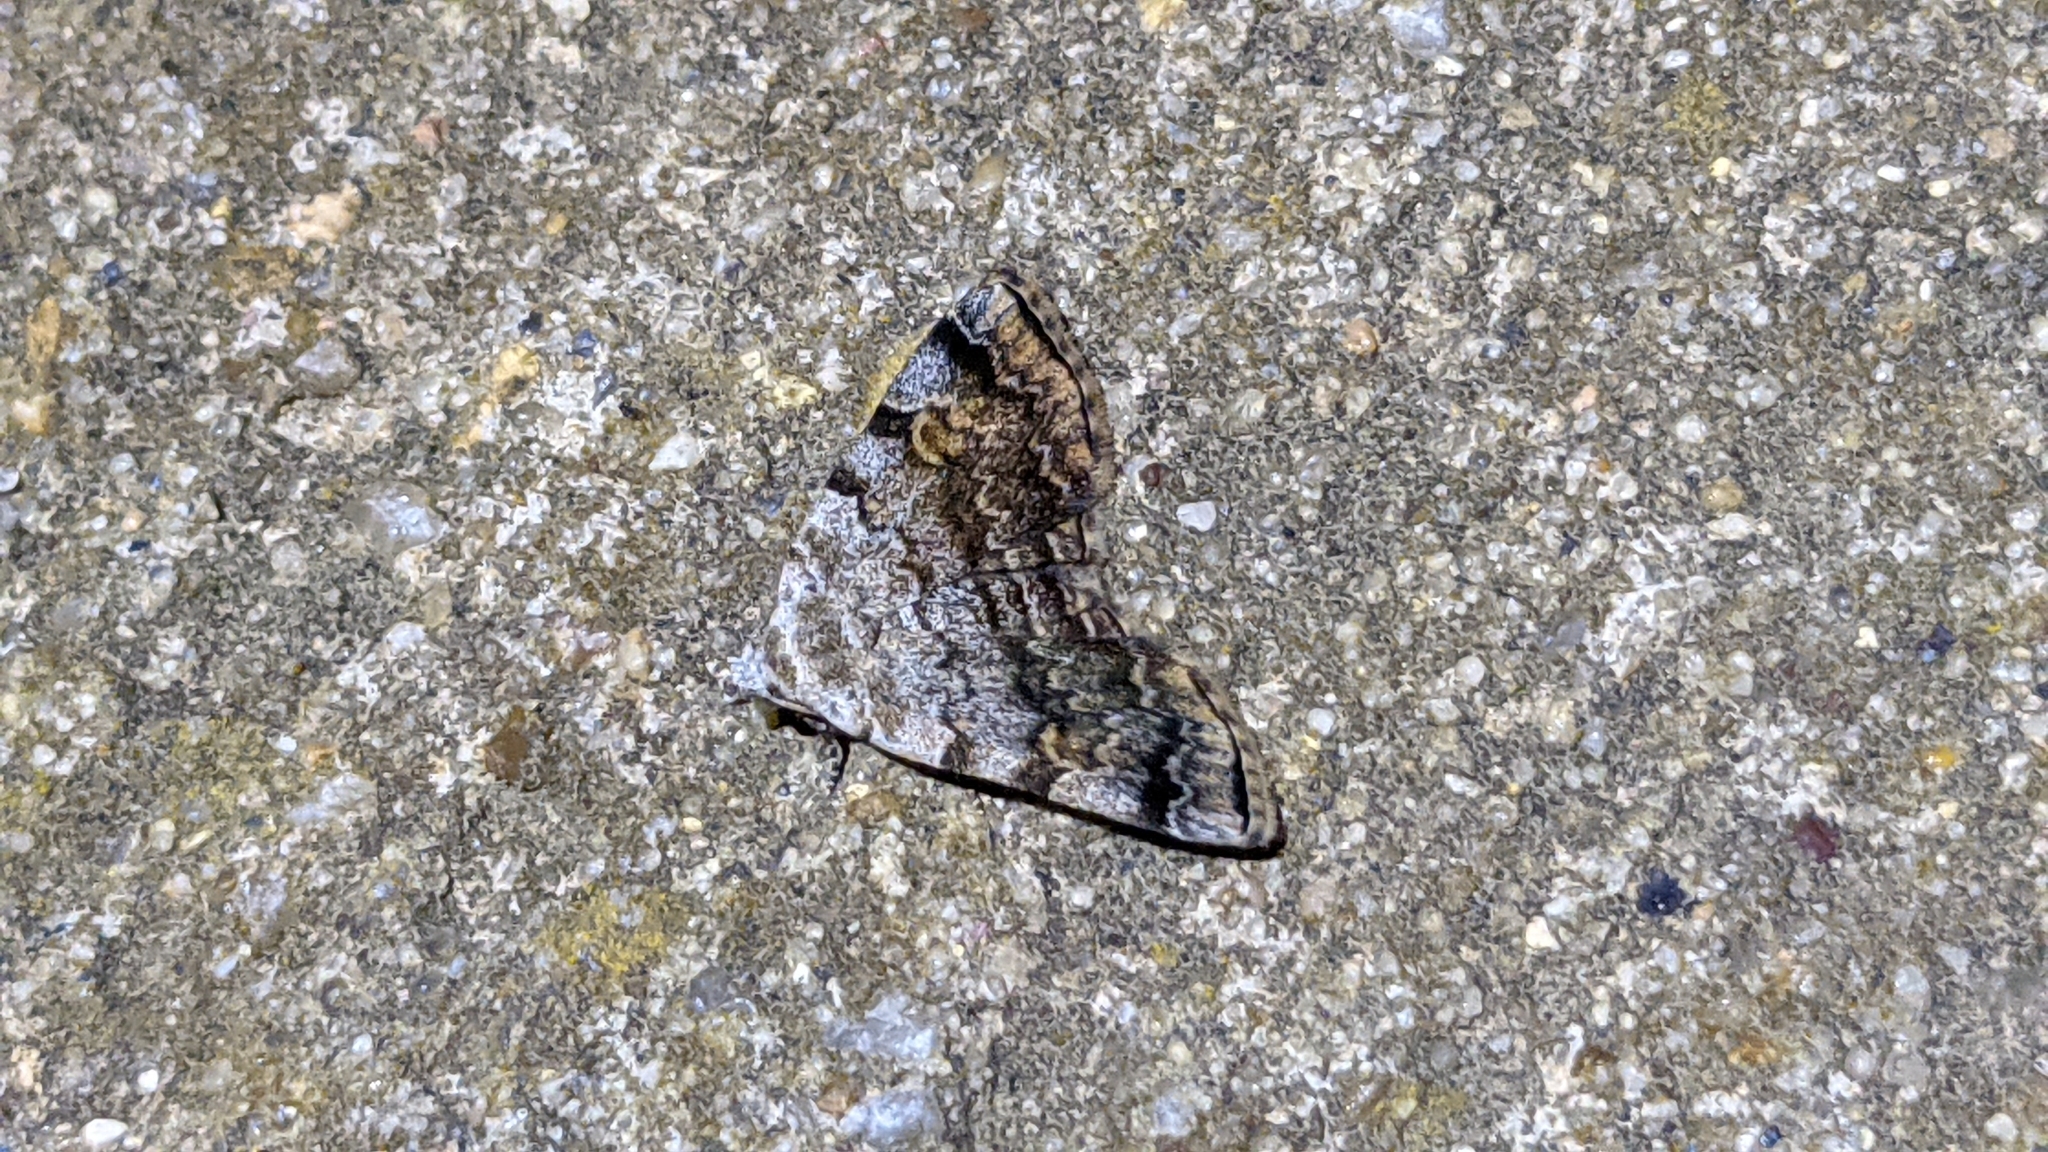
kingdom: Animalia
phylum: Arthropoda
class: Insecta
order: Lepidoptera
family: Erebidae
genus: Idia
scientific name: Idia americalis
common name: American idia moth
